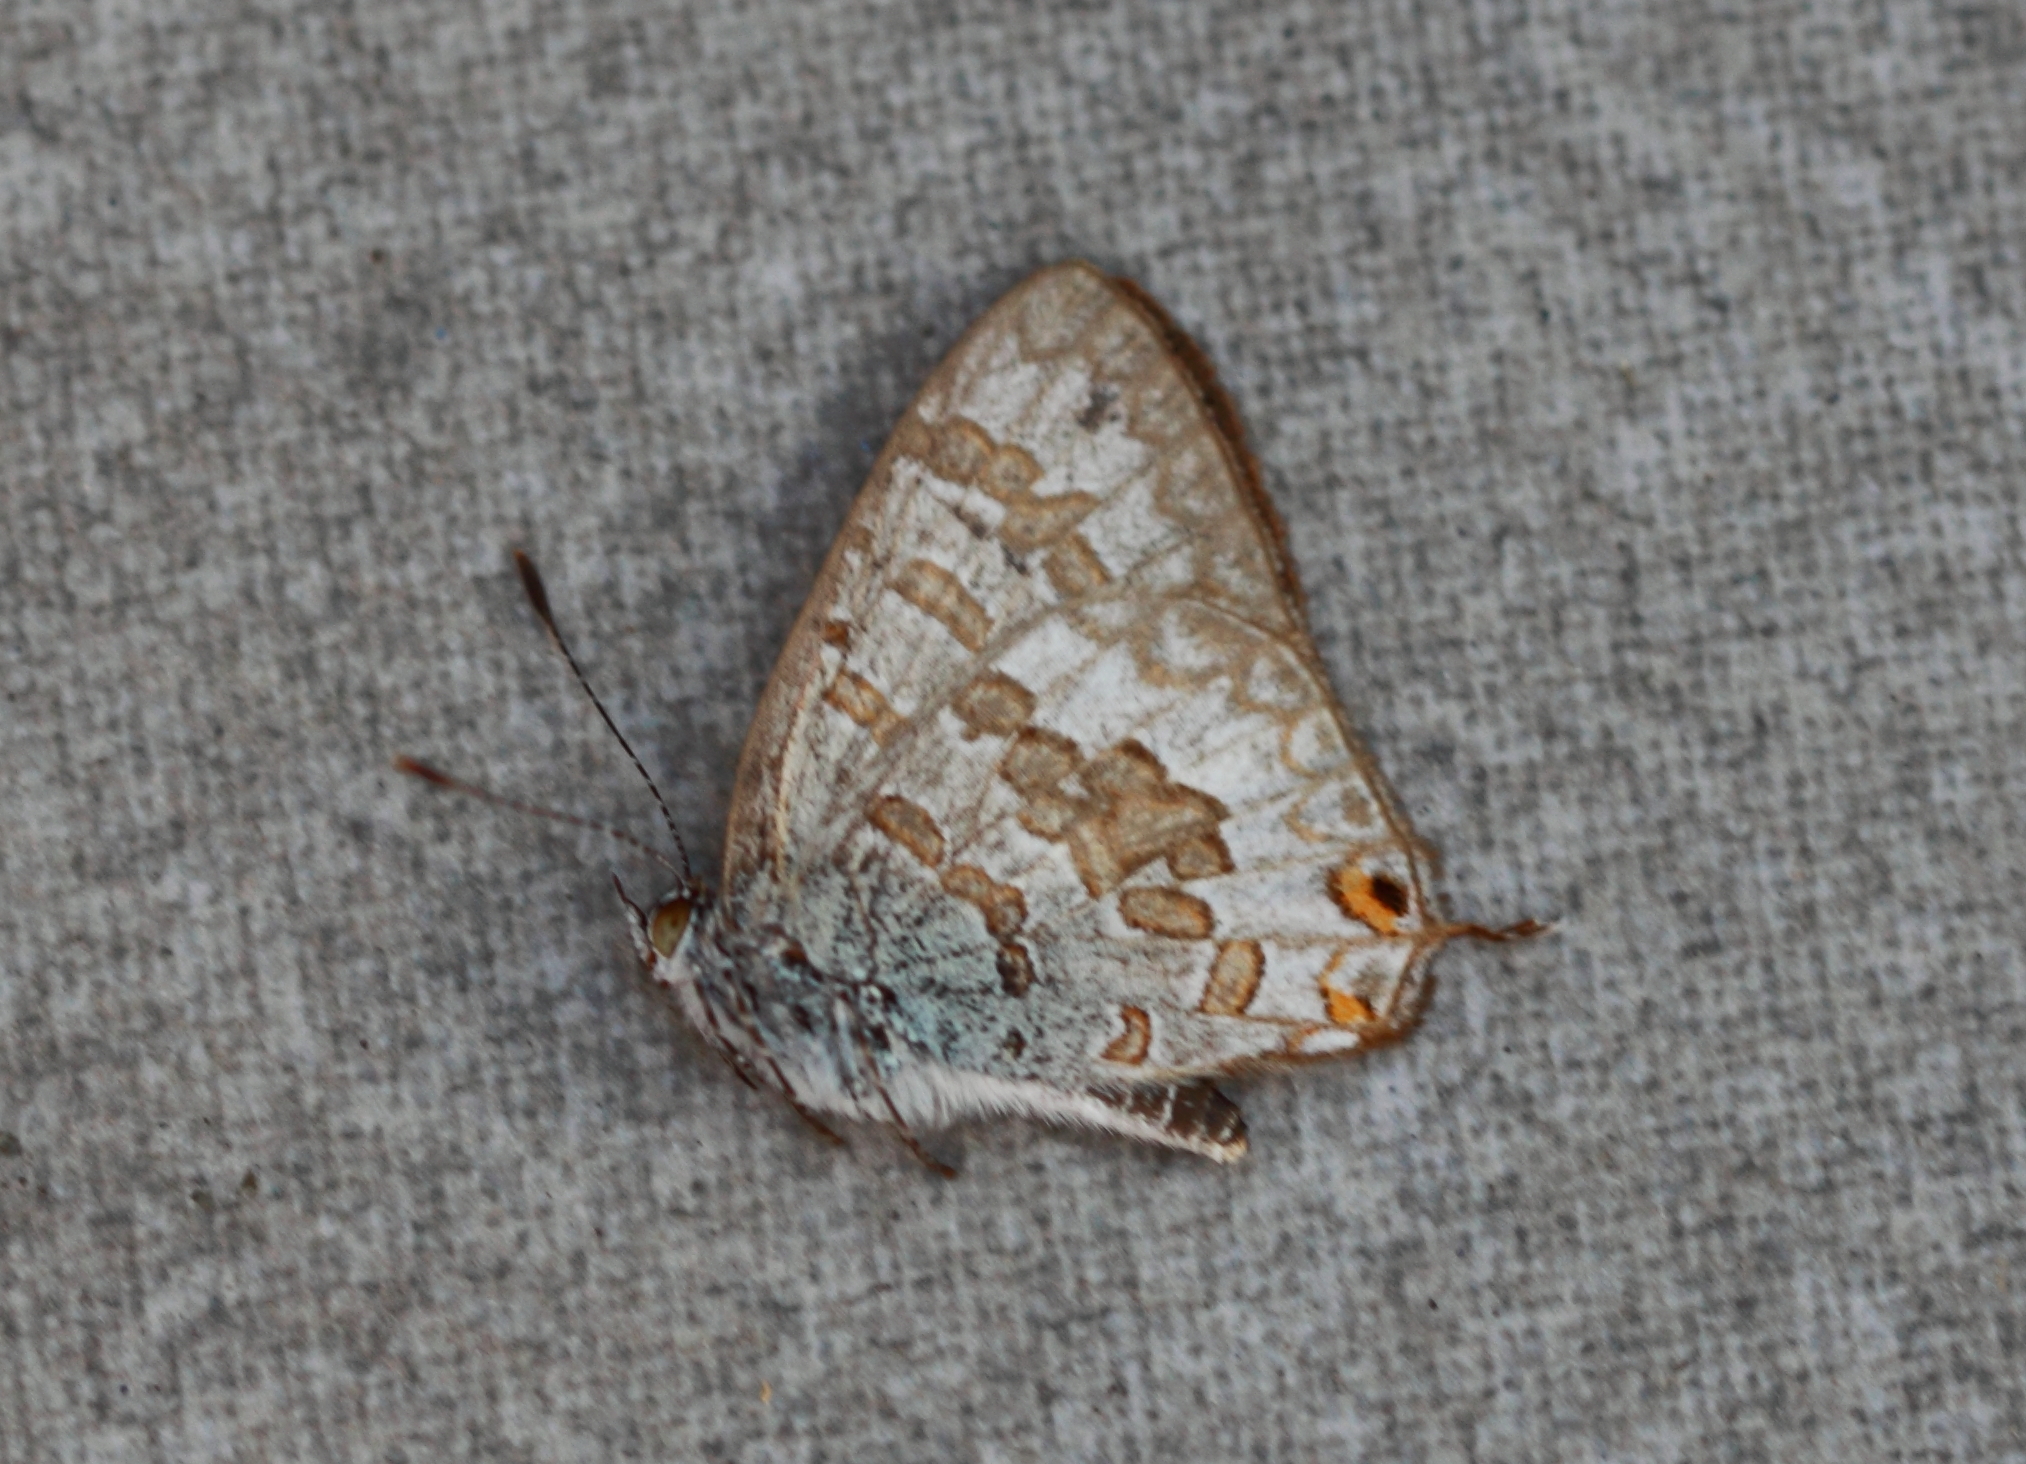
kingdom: Animalia
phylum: Arthropoda
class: Insecta
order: Lepidoptera
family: Lycaenidae
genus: Catopyrops
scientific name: Catopyrops florinda
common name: Speckled line-blue
